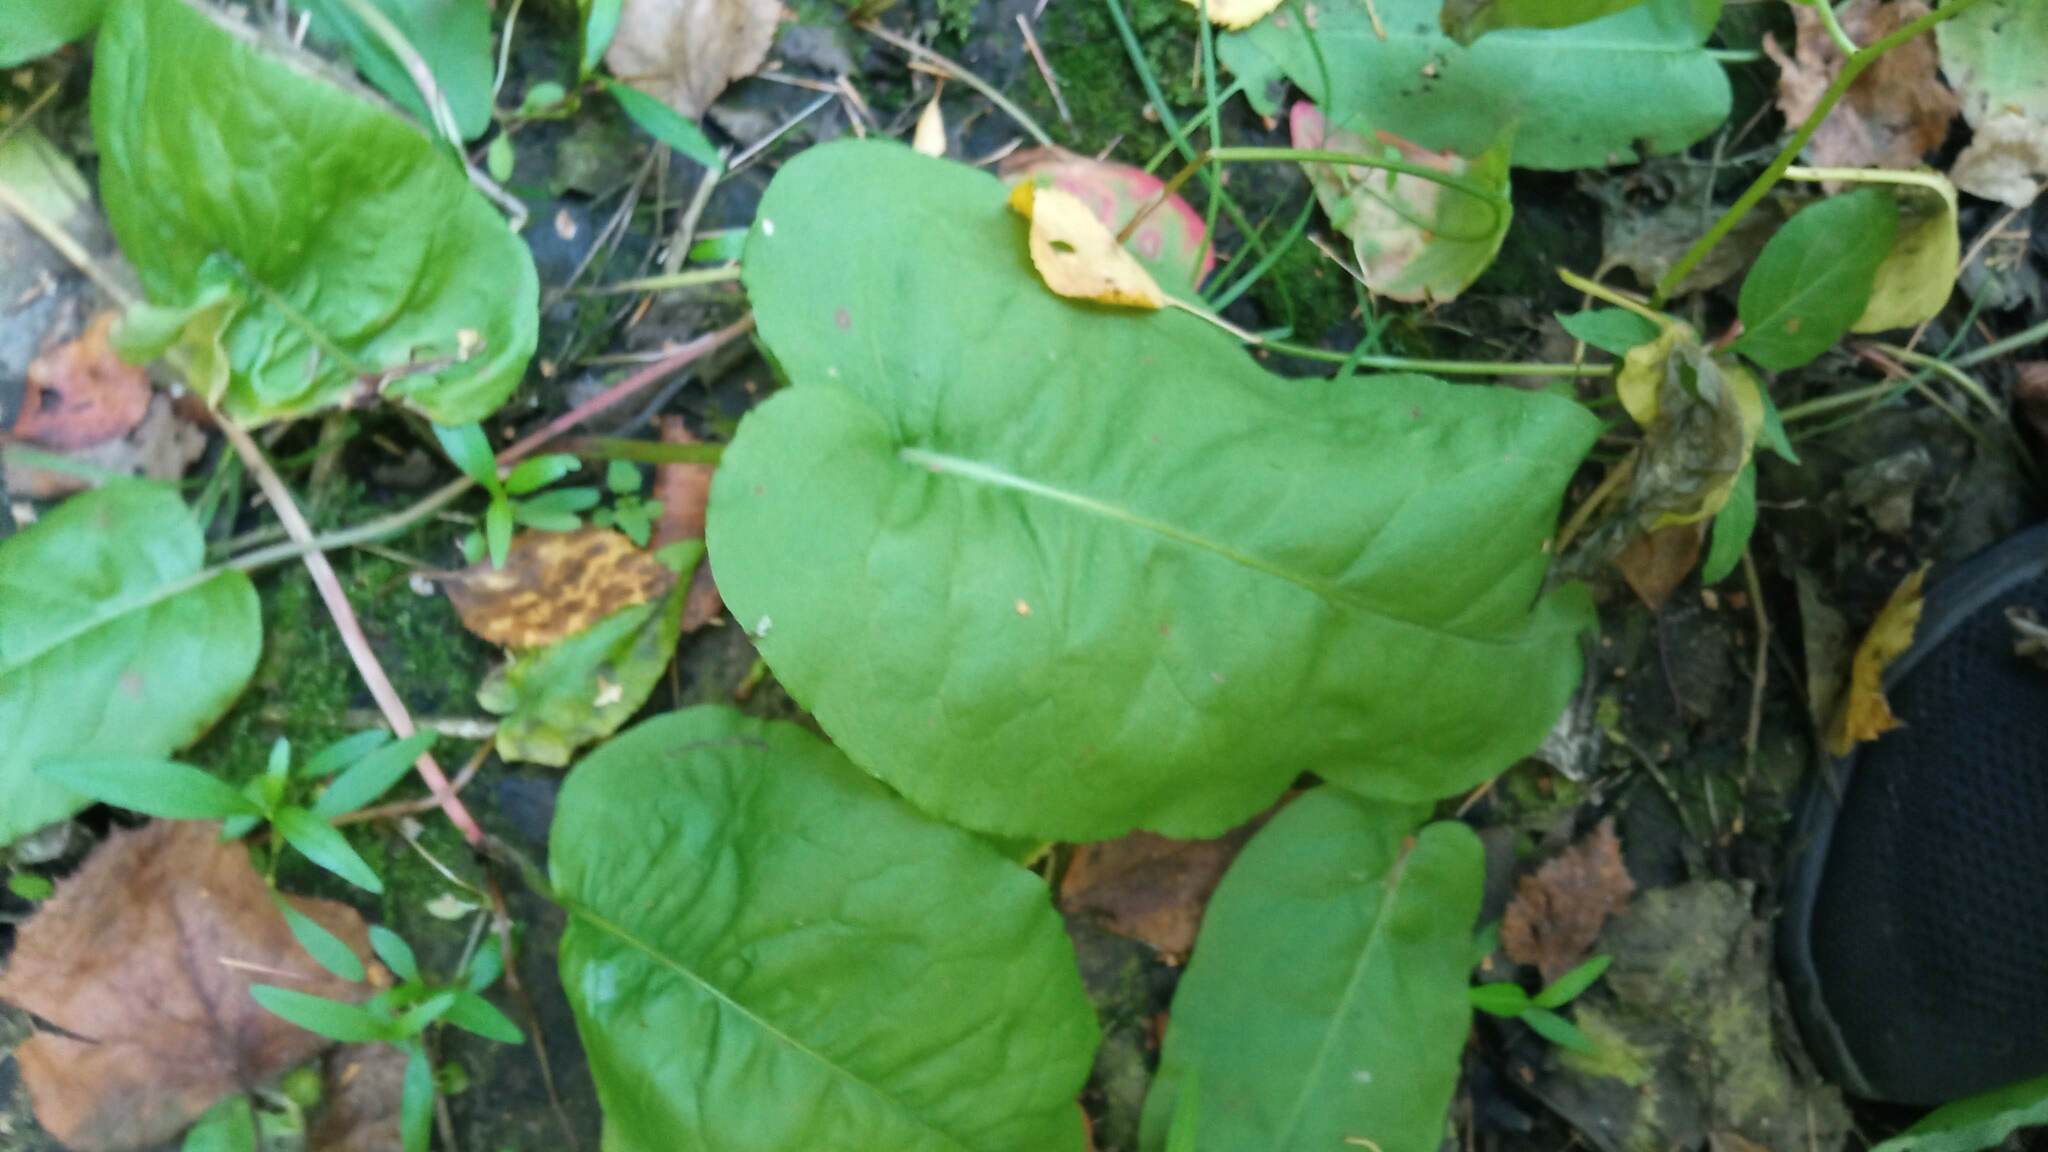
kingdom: Plantae
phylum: Tracheophyta
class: Magnoliopsida
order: Caryophyllales
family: Polygonaceae
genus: Rumex
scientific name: Rumex aquaticus
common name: Scottish dock
